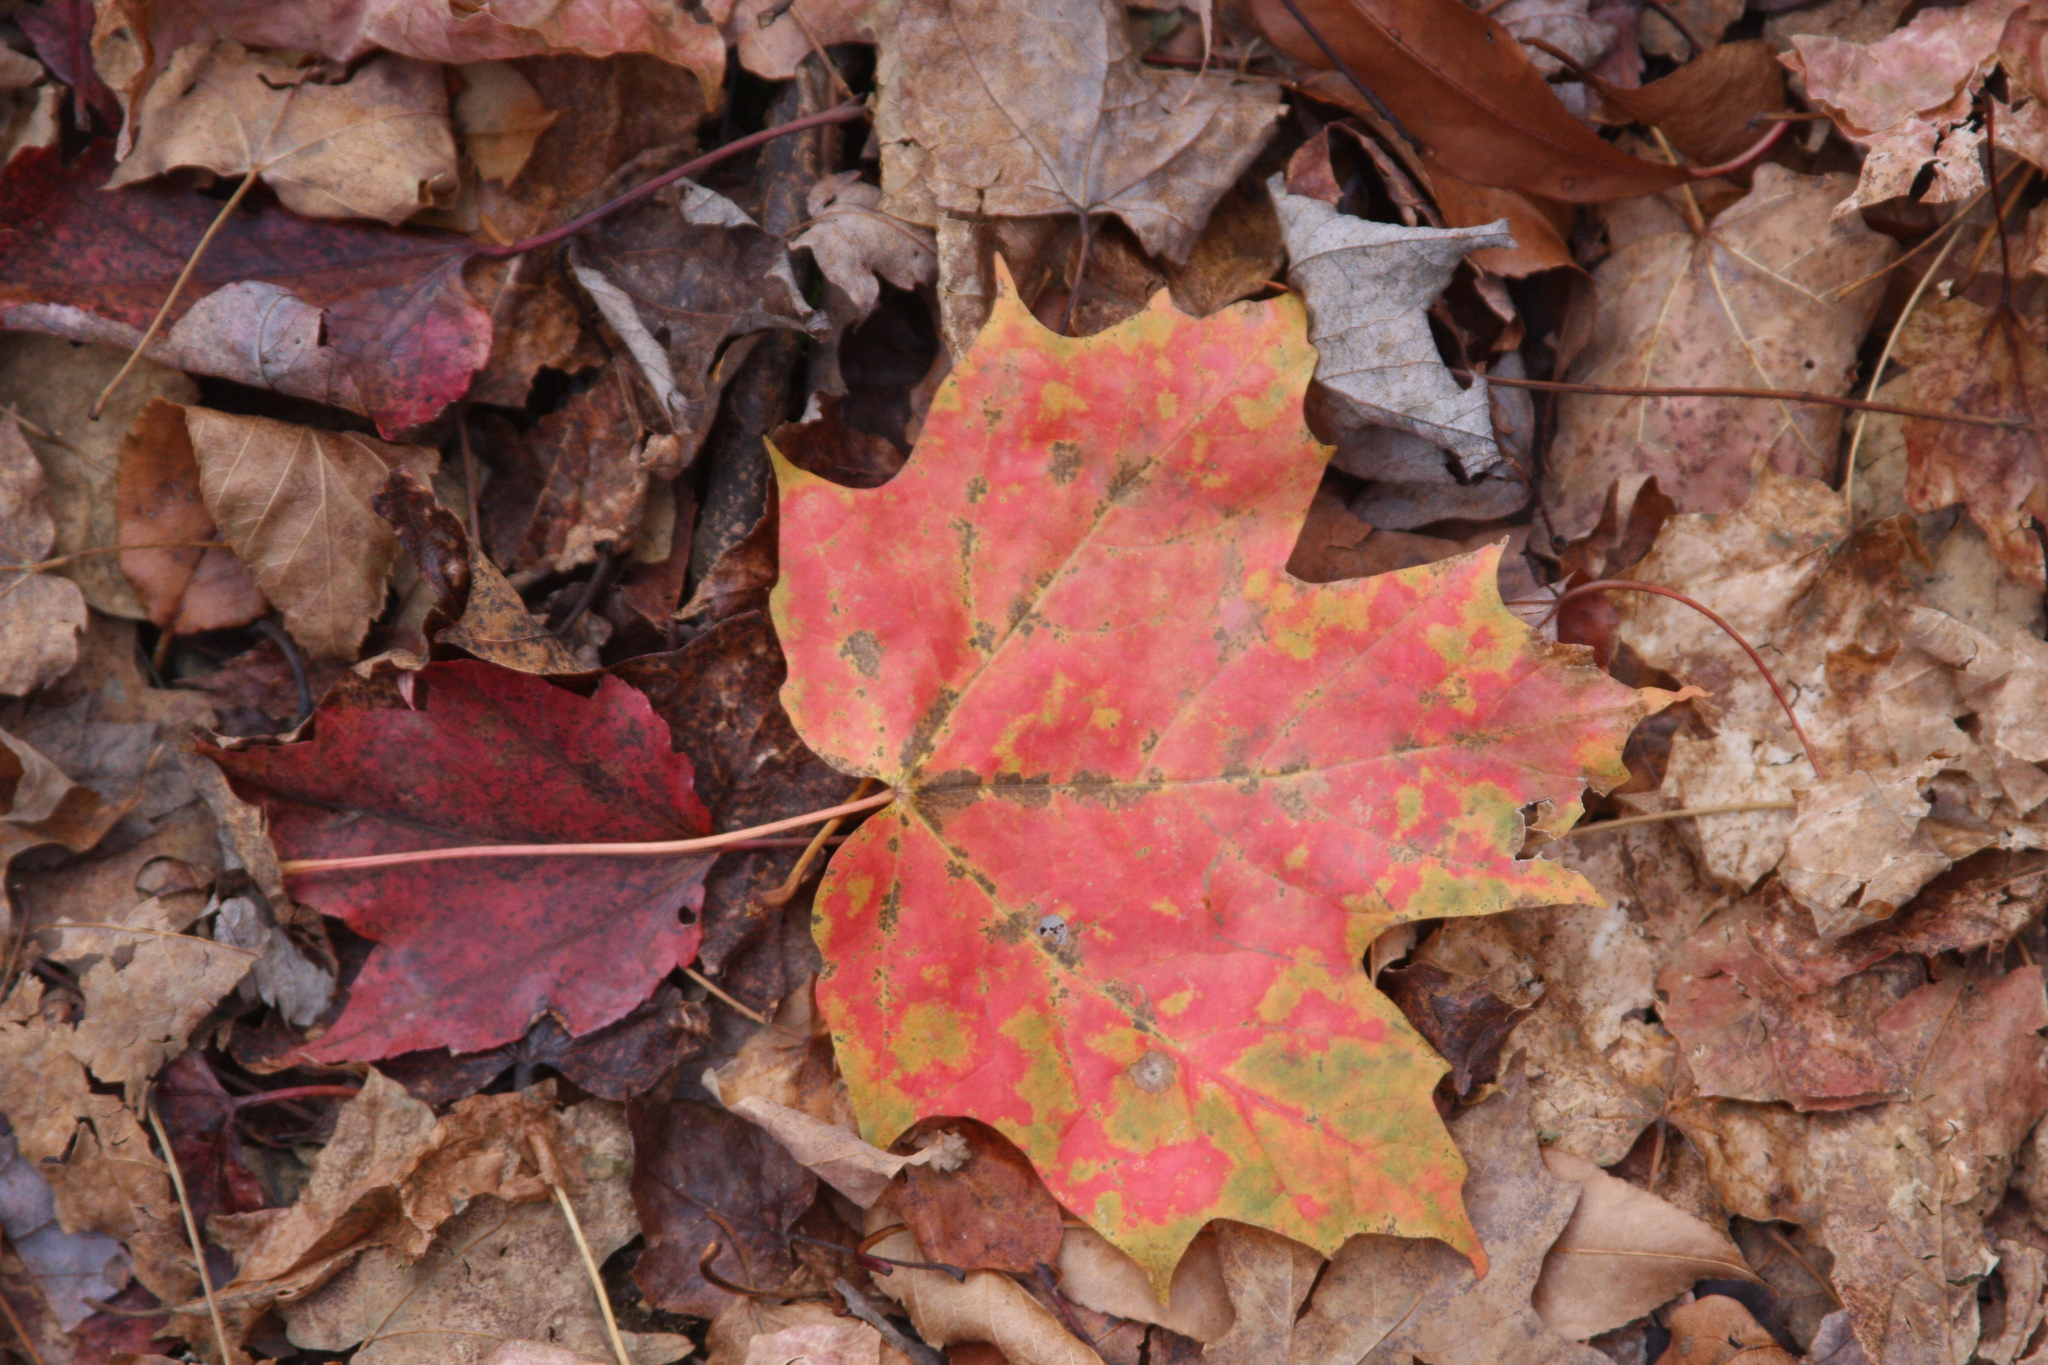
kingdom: Plantae
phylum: Tracheophyta
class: Magnoliopsida
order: Sapindales
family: Sapindaceae
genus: Acer
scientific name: Acer saccharum
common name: Sugar maple
